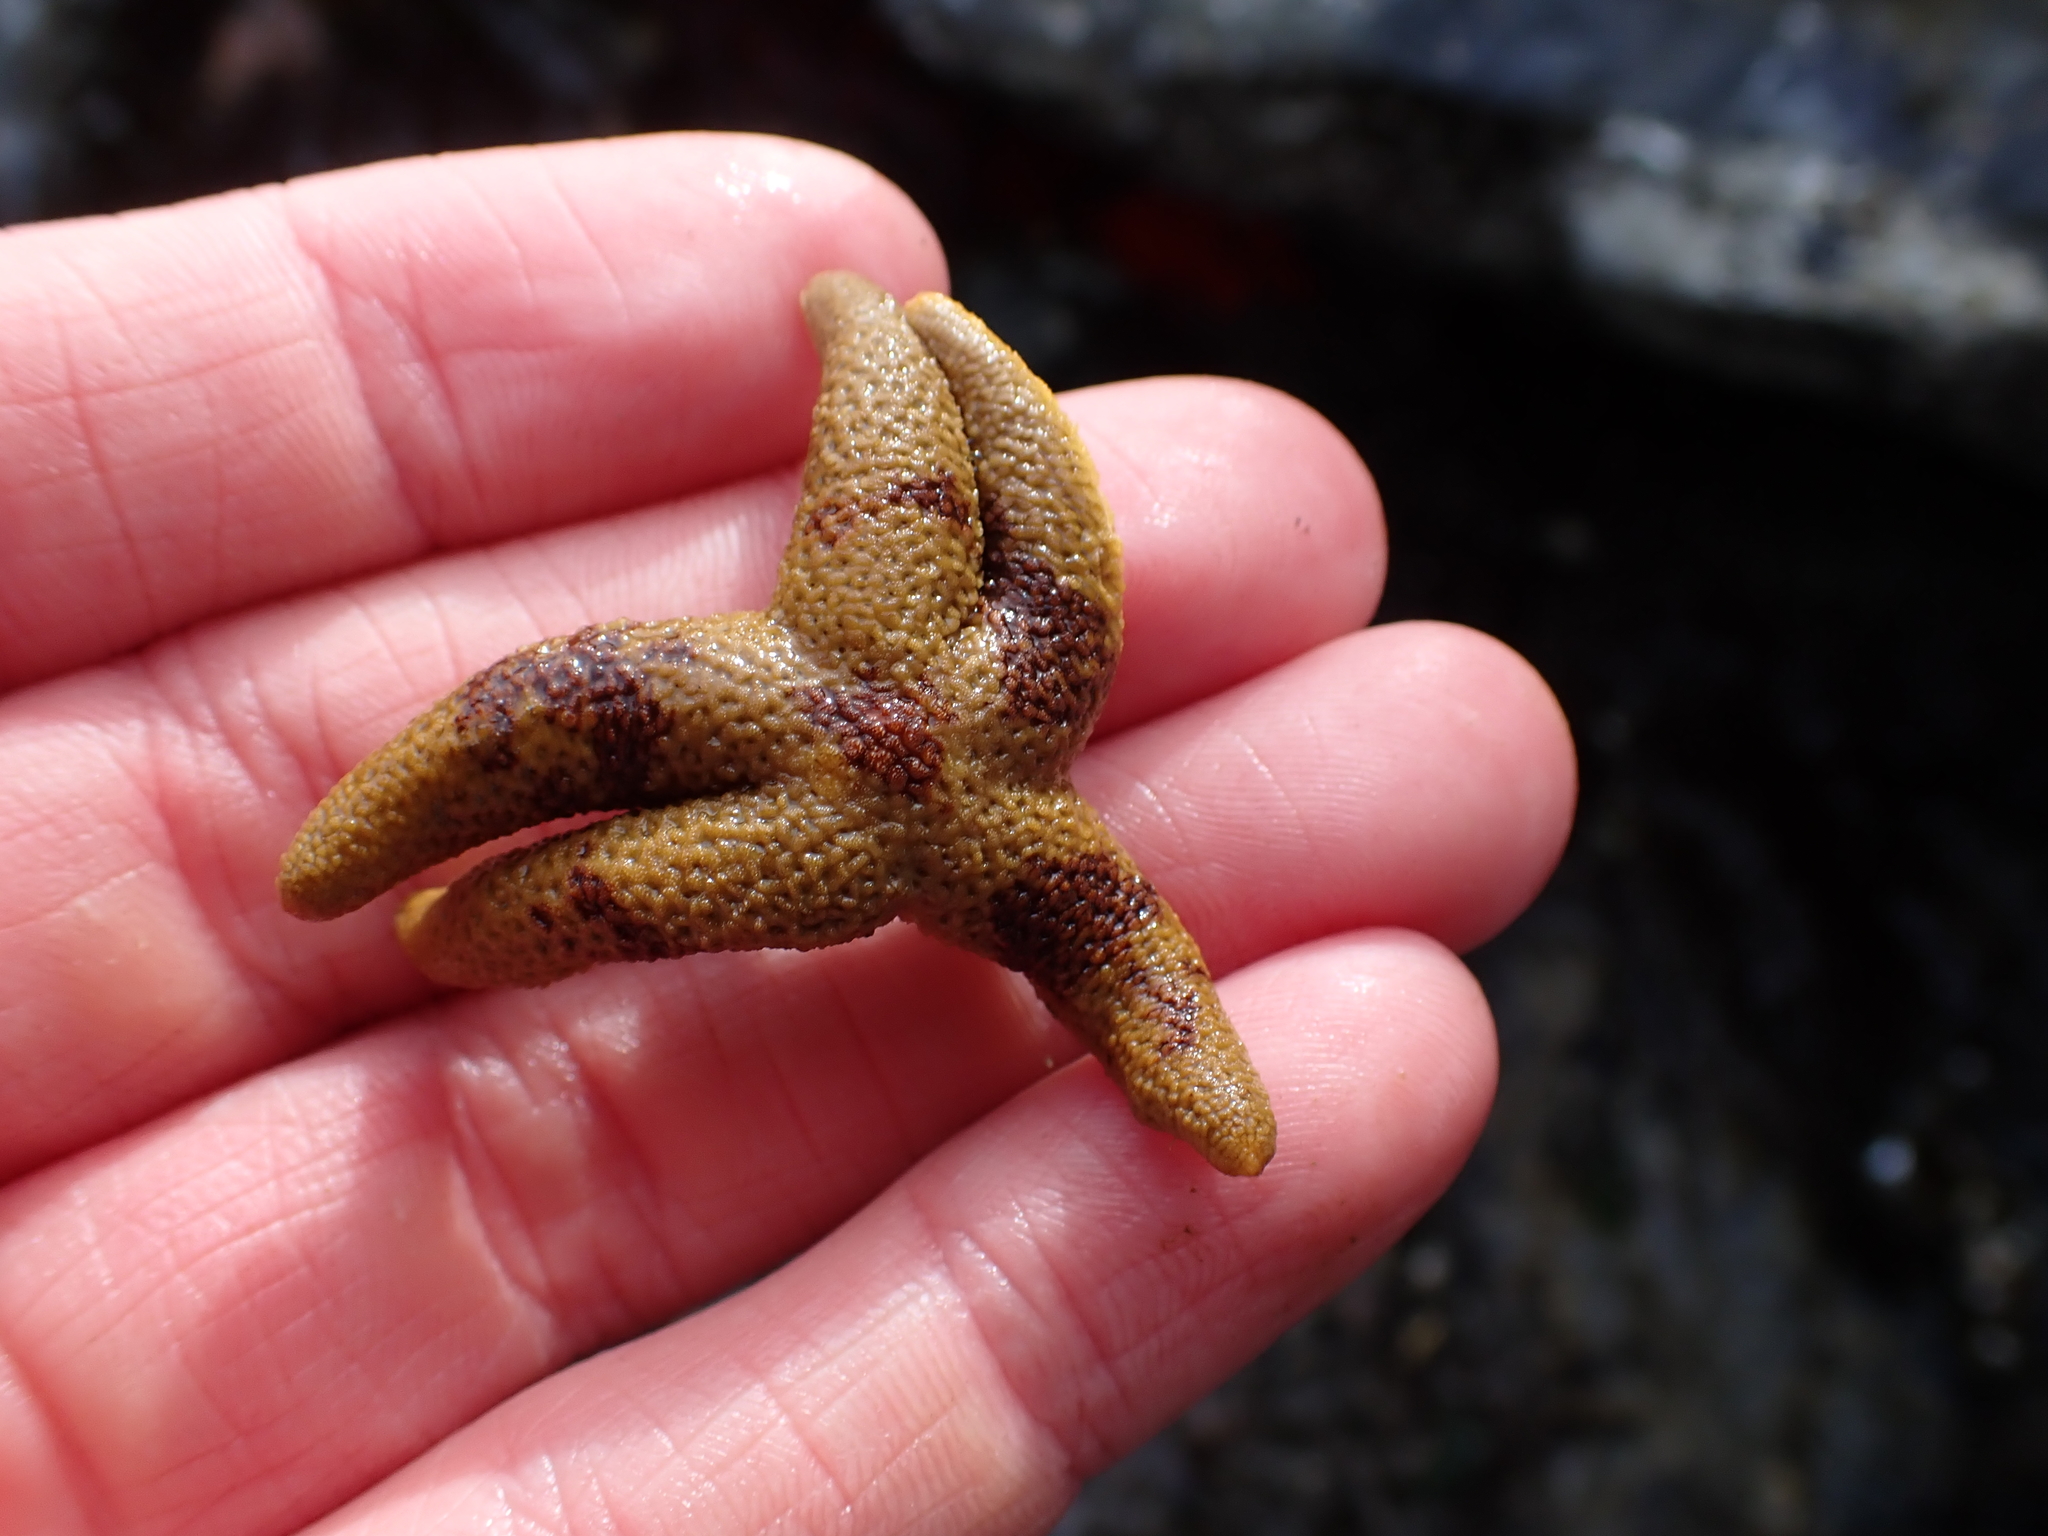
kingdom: Animalia
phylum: Echinodermata
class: Asteroidea
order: Spinulosida
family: Echinasteridae
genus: Henricia
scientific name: Henricia pumila
